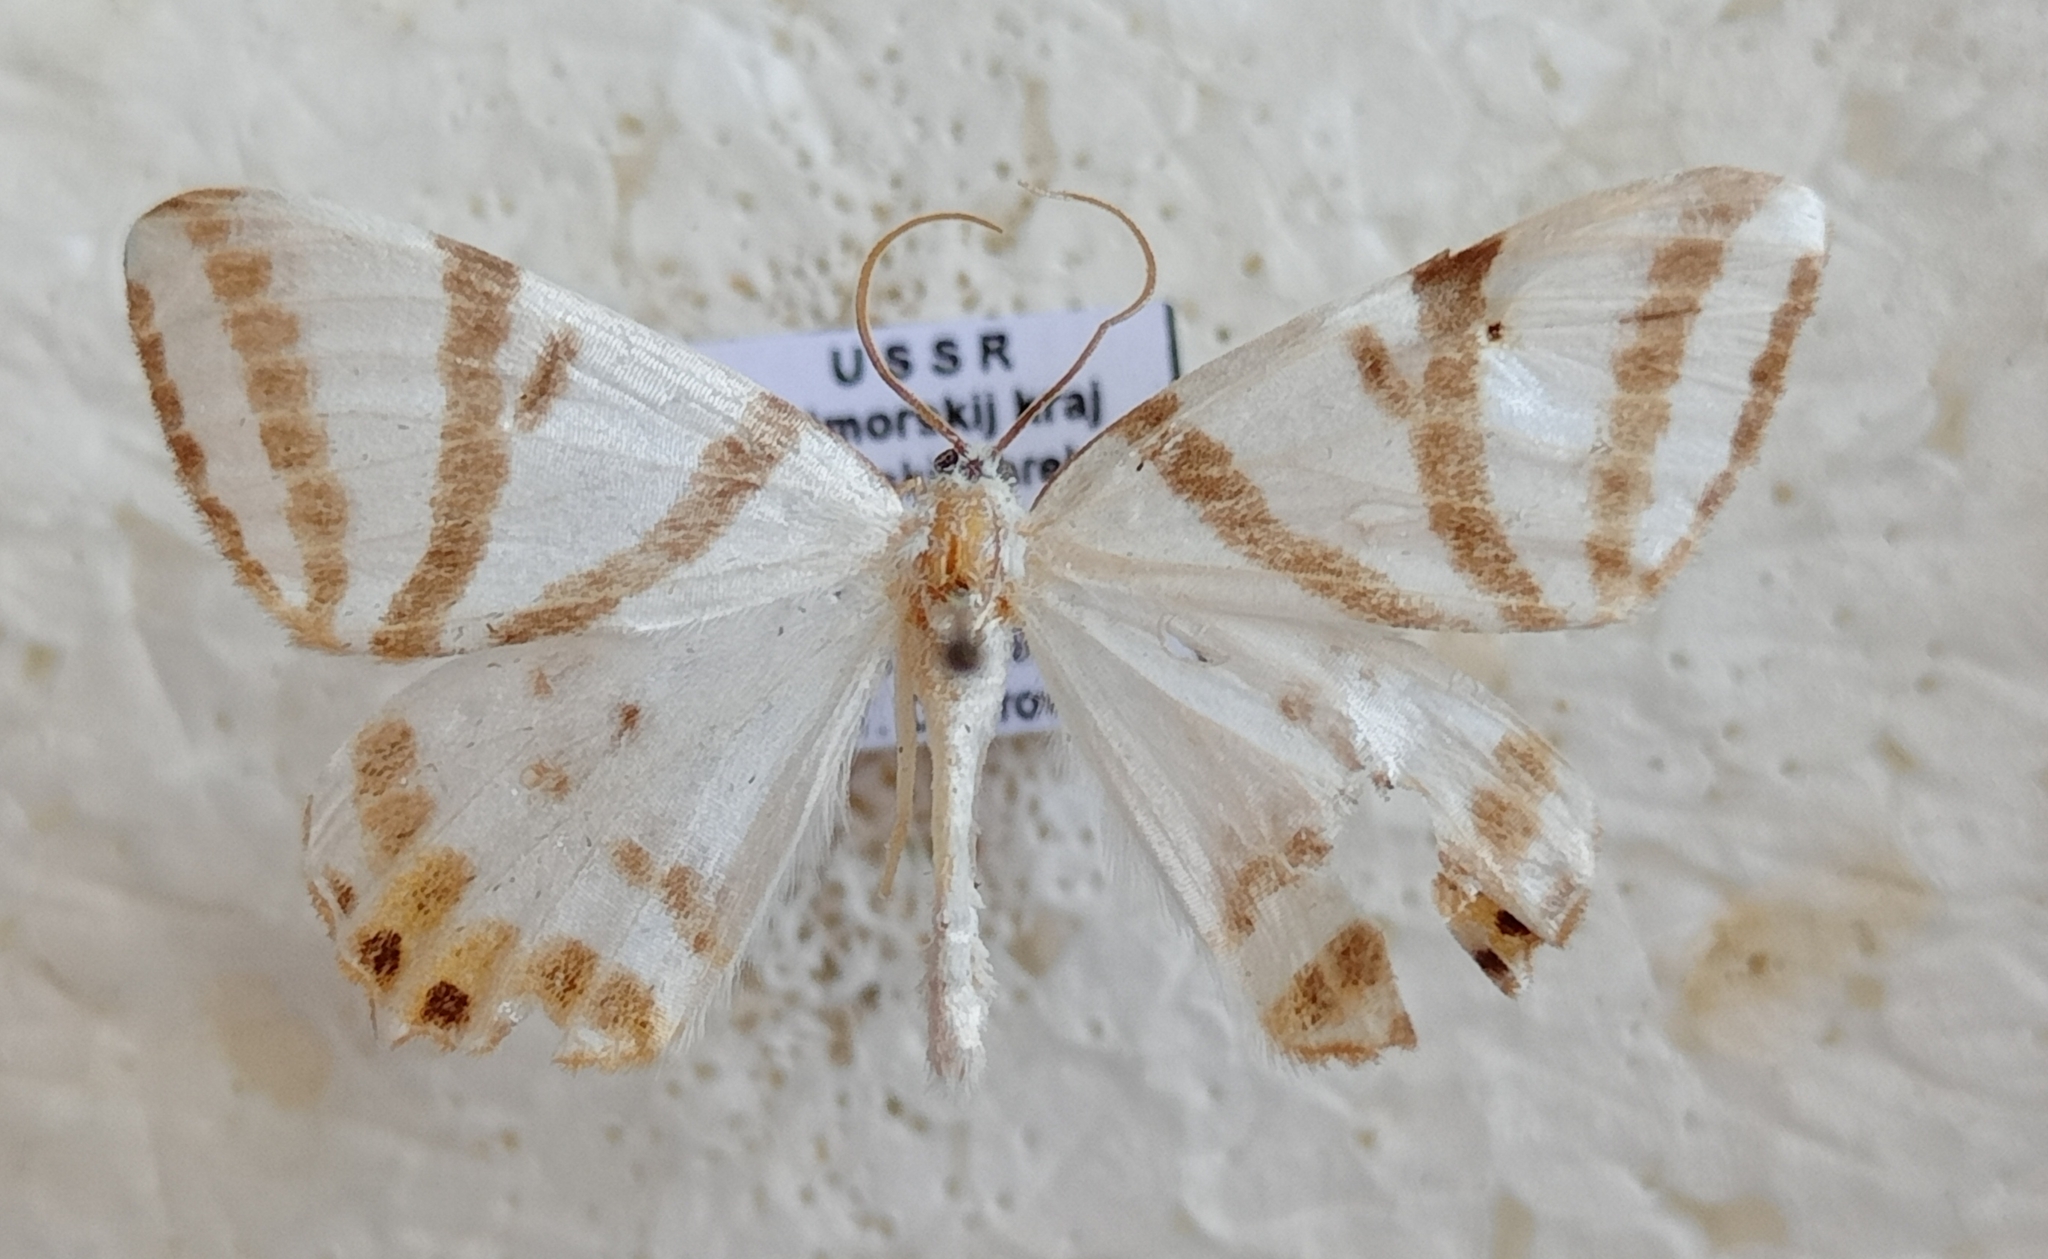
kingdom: Animalia
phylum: Arthropoda
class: Insecta
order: Lepidoptera
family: Geometridae
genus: Tristrophis
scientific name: Tristrophis veneris
